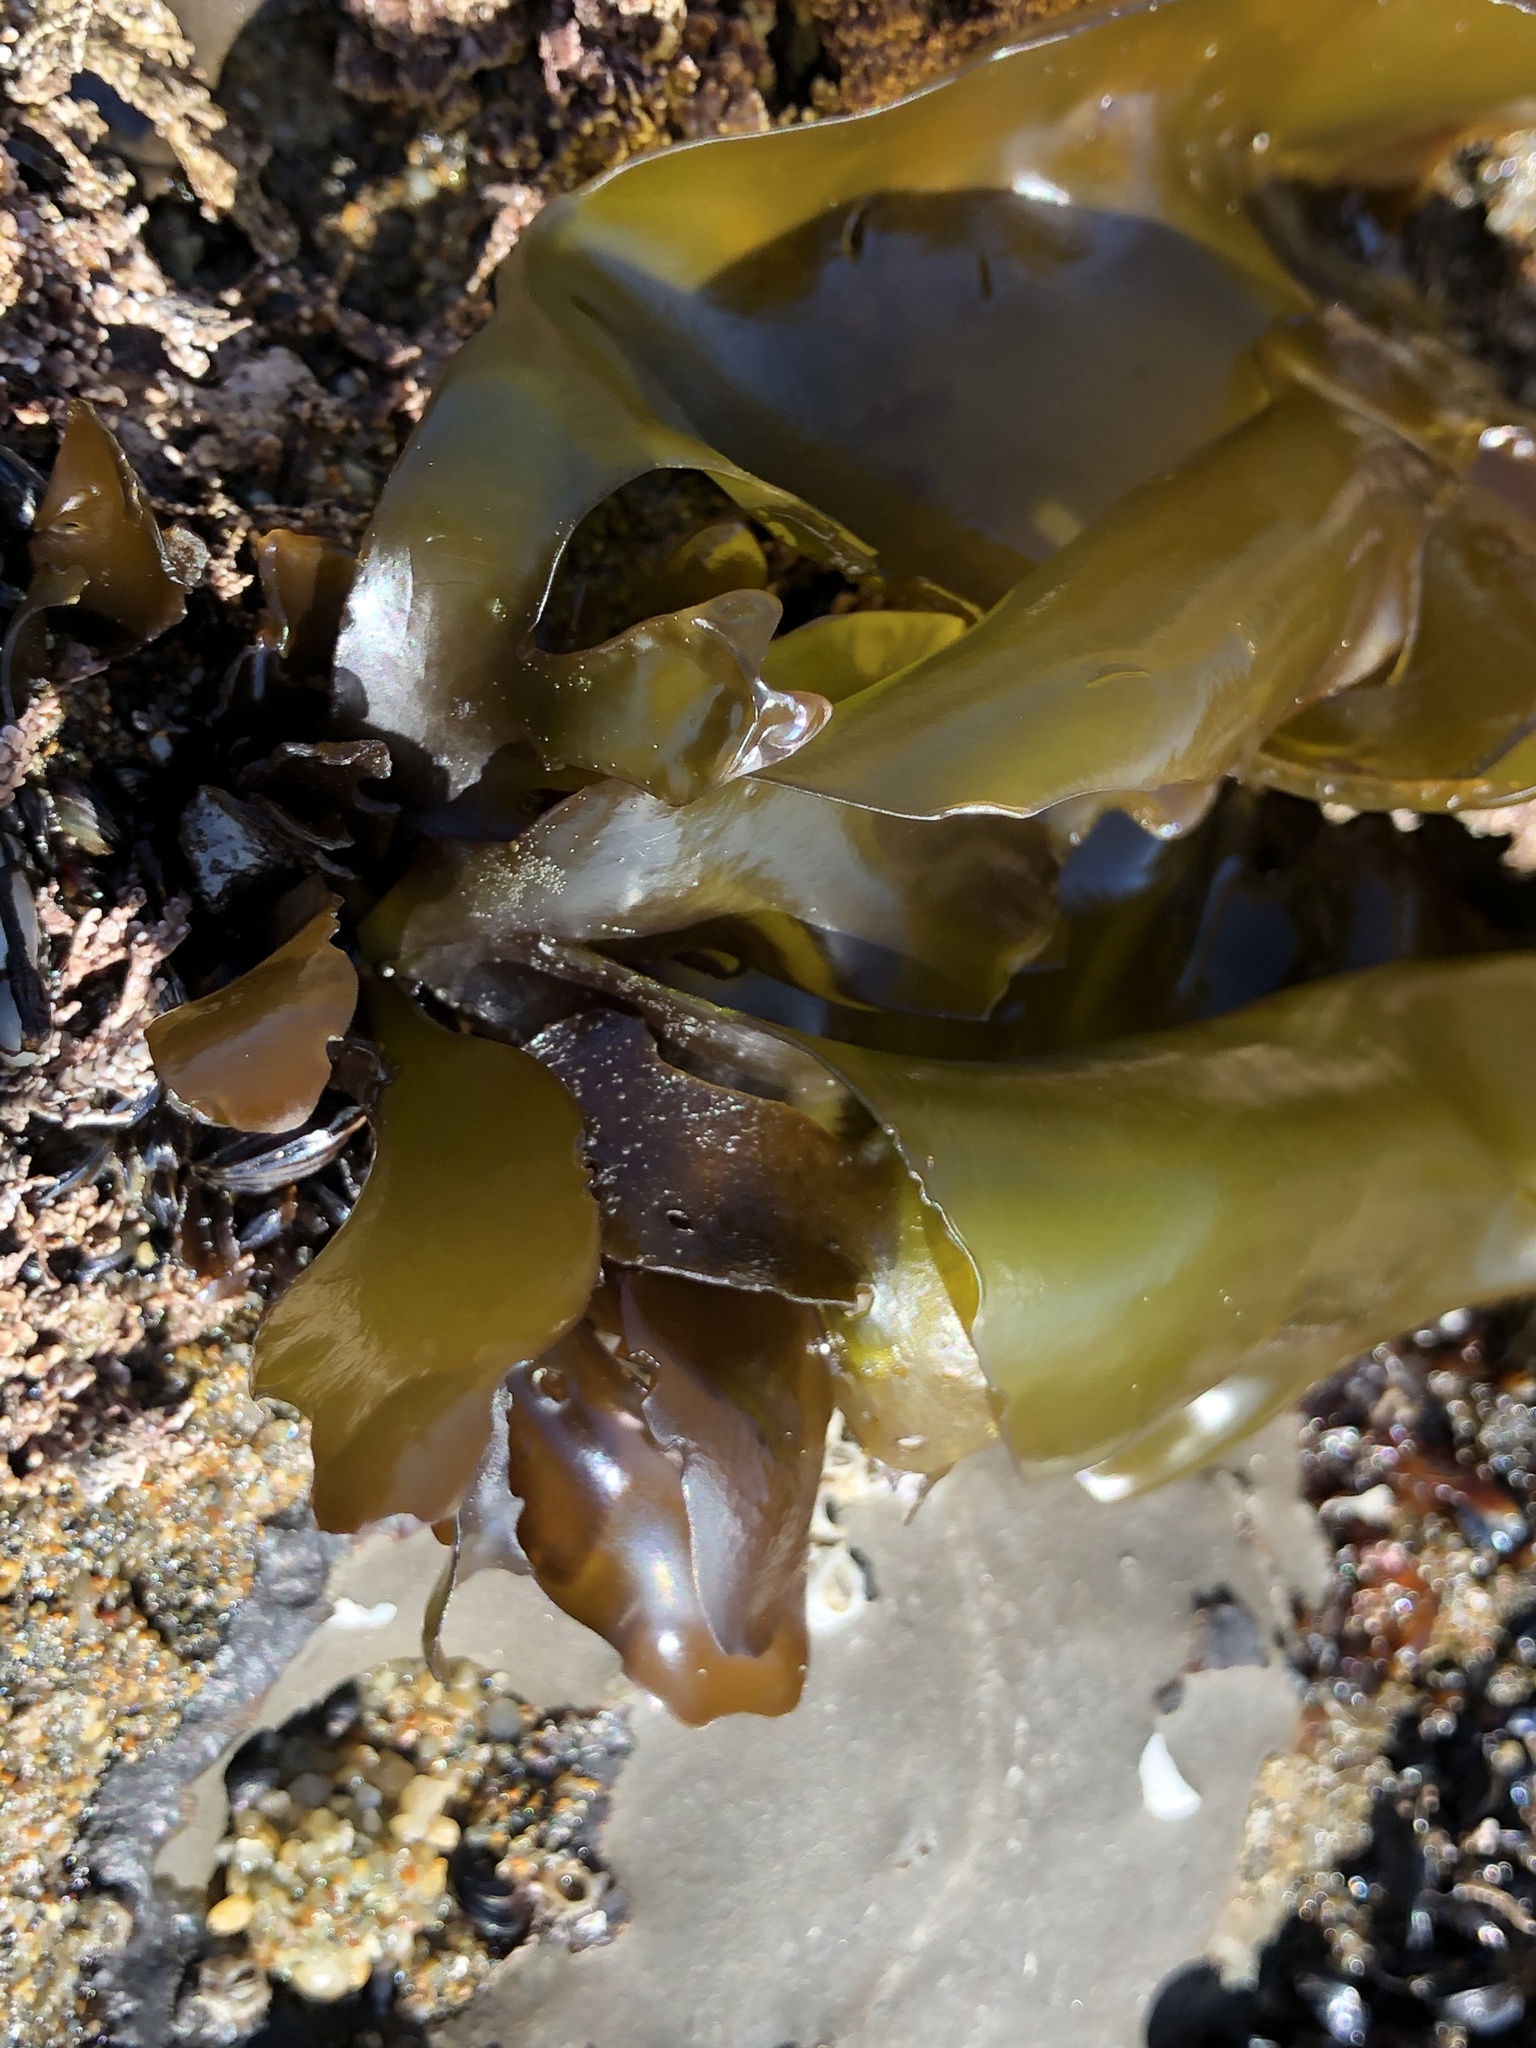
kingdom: Plantae
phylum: Rhodophyta
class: Florideophyceae
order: Gigartinales
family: Gigartinaceae
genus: Mazzaella
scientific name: Mazzaella flaccida
